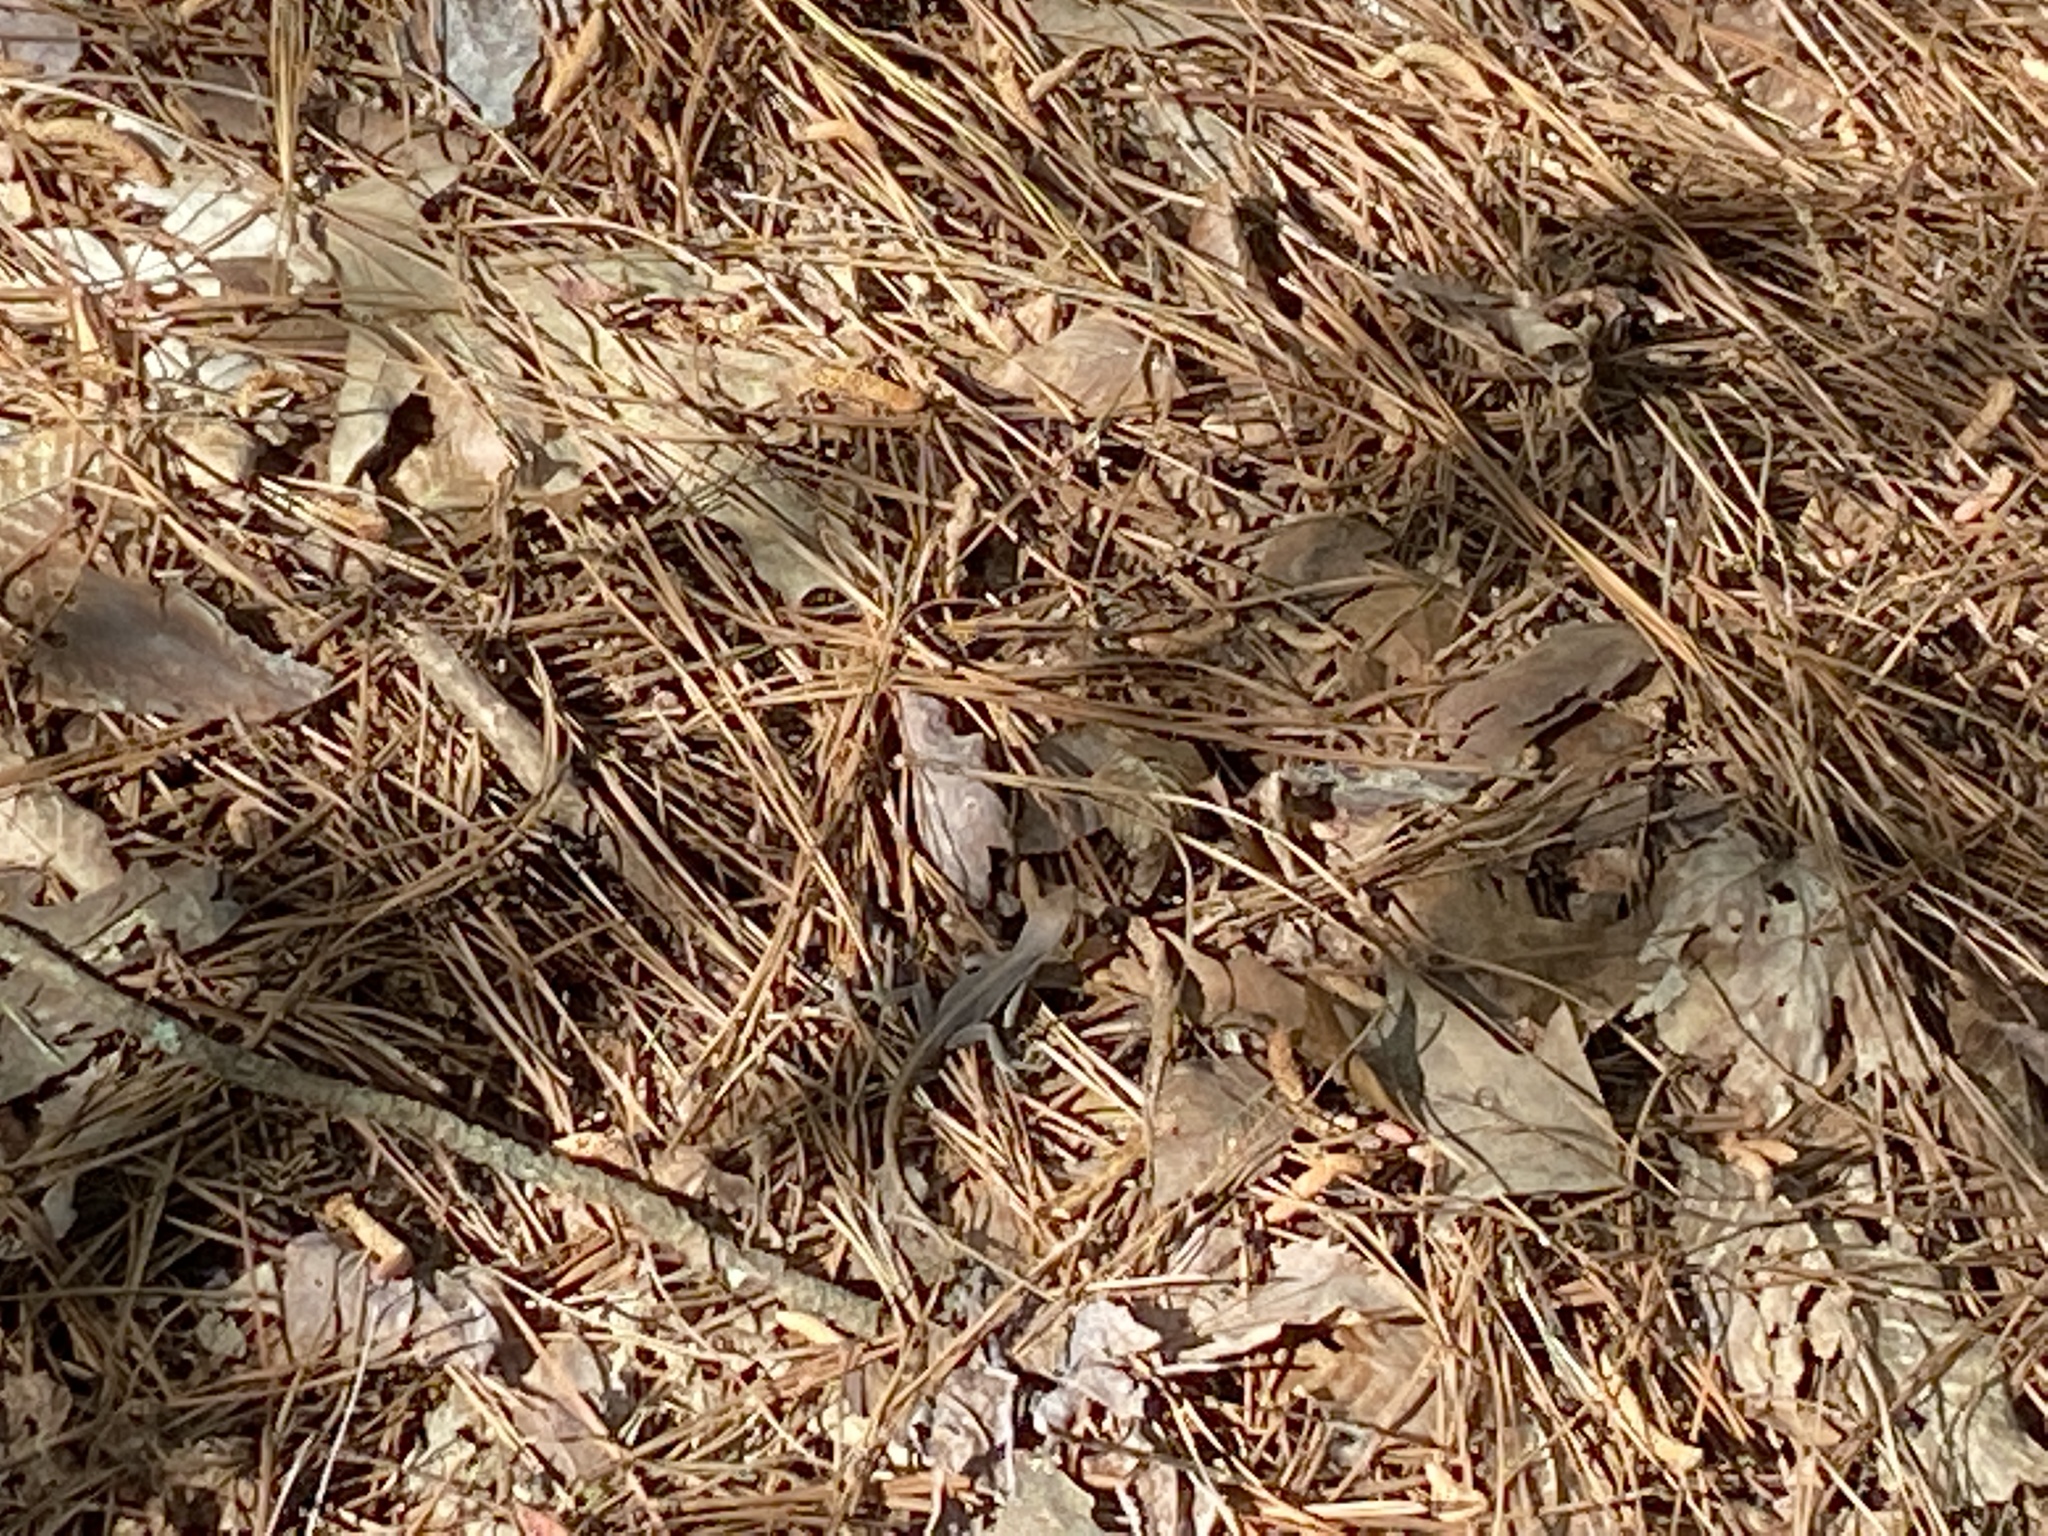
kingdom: Animalia
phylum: Chordata
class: Squamata
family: Dactyloidae
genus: Anolis
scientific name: Anolis carolinensis
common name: Green anole
